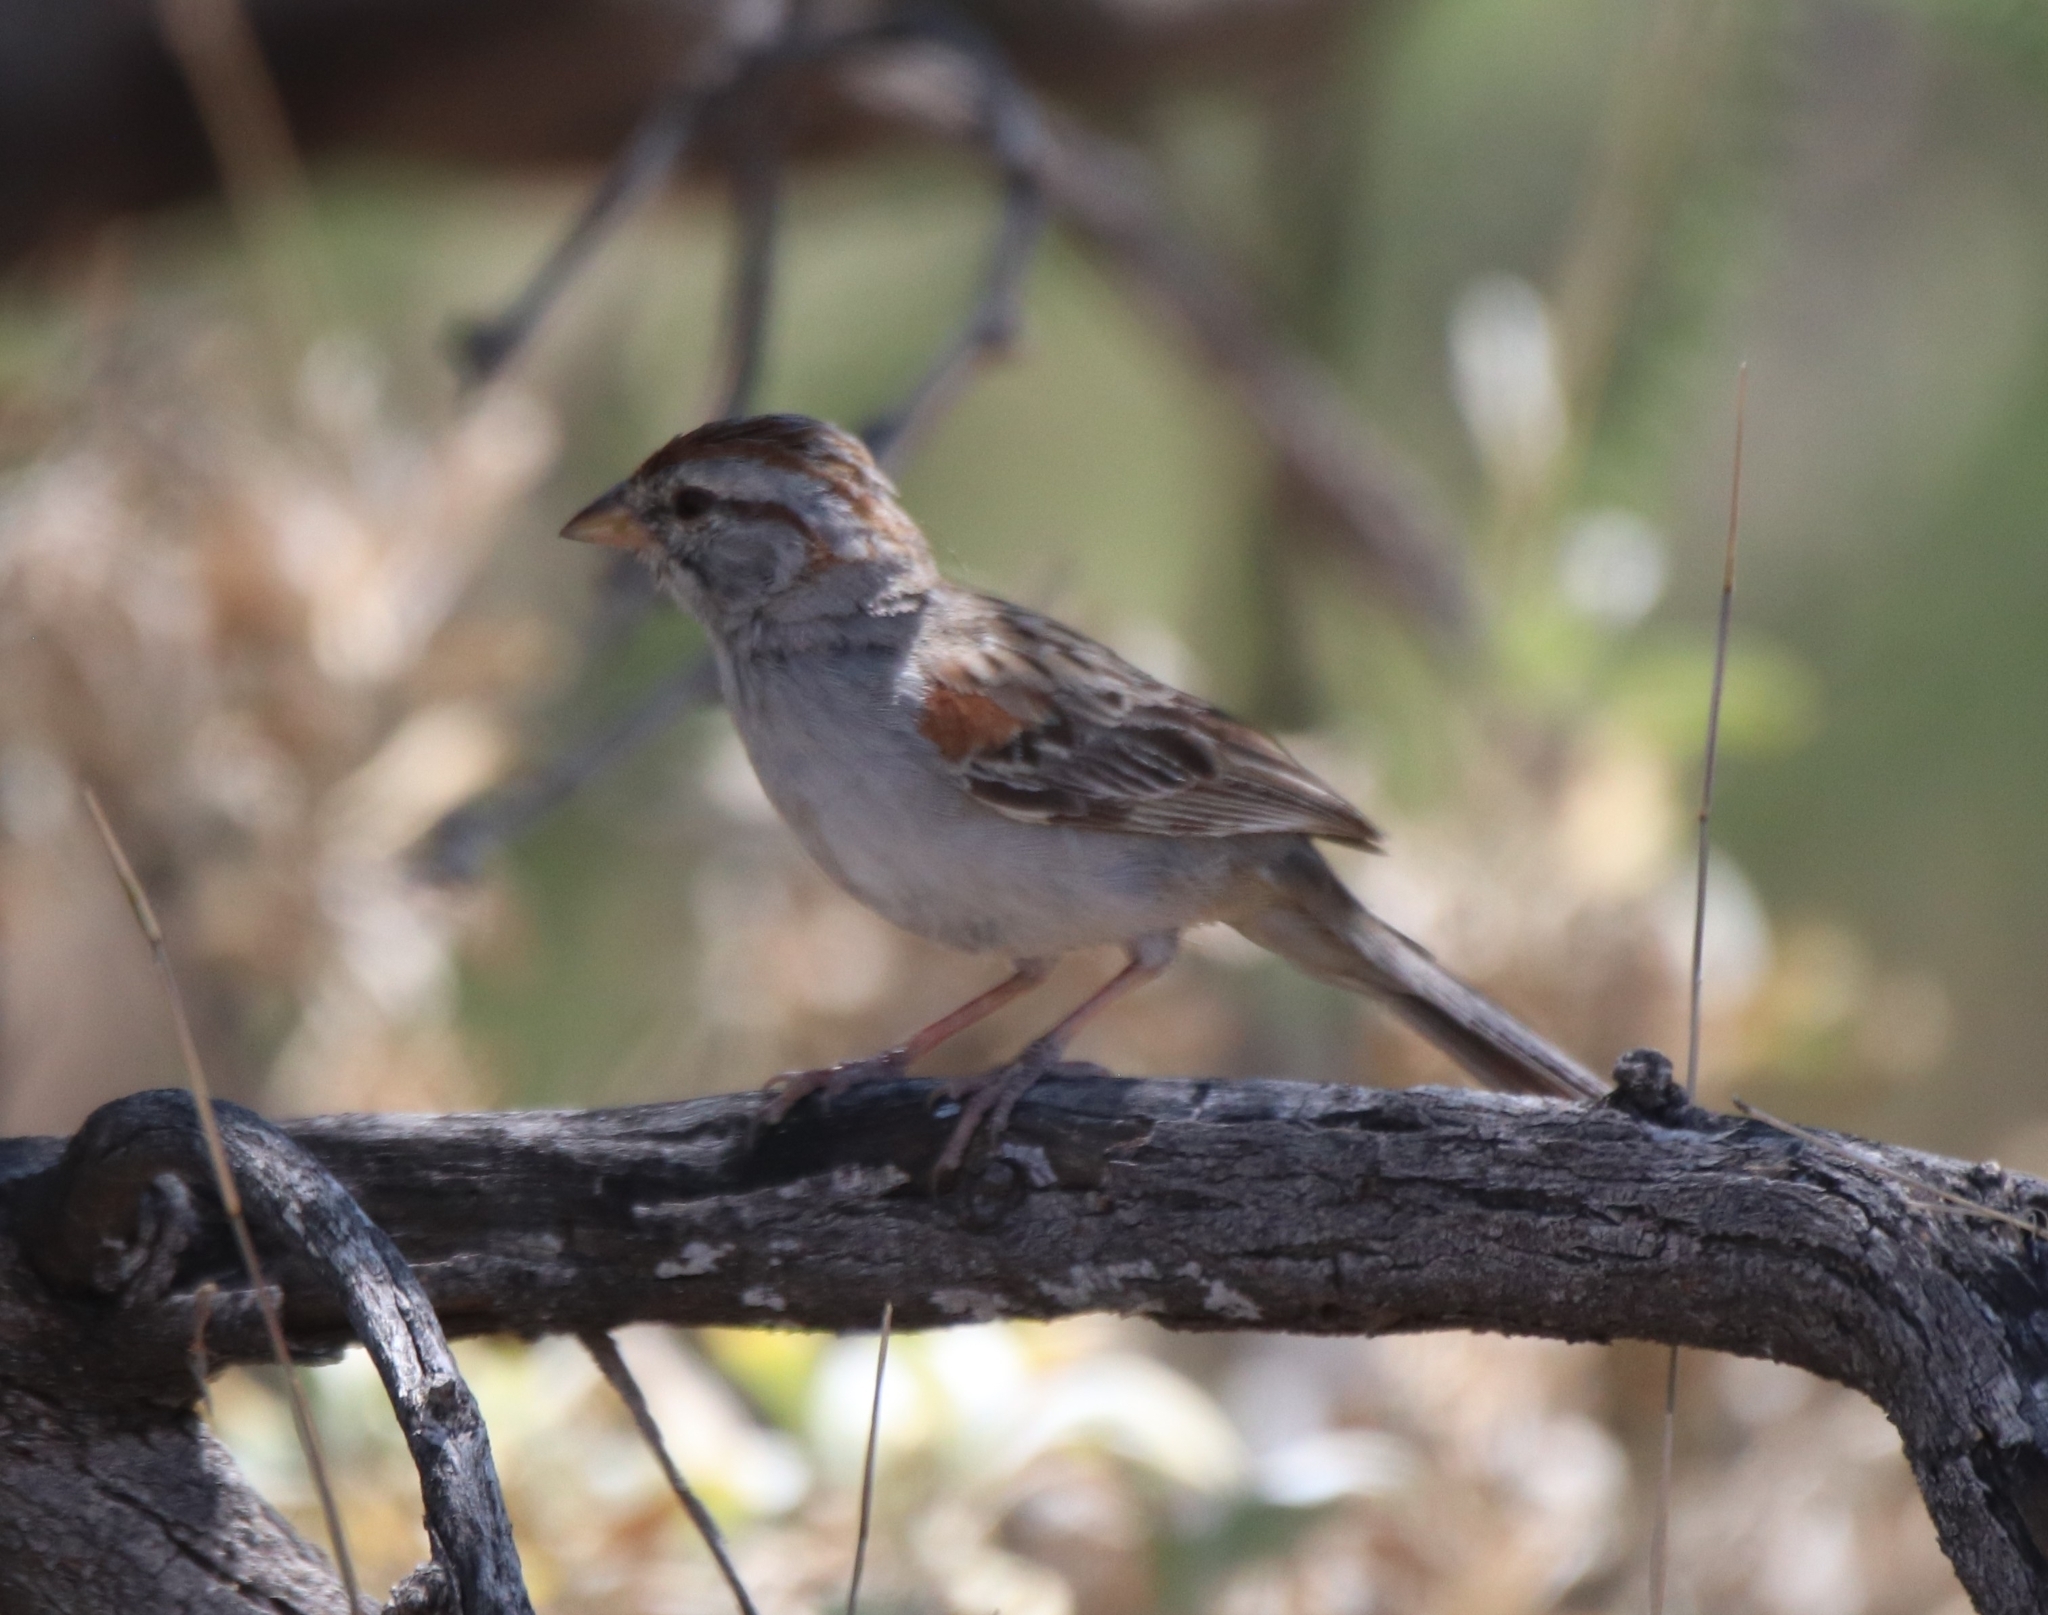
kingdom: Animalia
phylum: Chordata
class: Aves
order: Passeriformes
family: Passerellidae
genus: Peucaea
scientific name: Peucaea carpalis
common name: Rufous-winged sparrow
